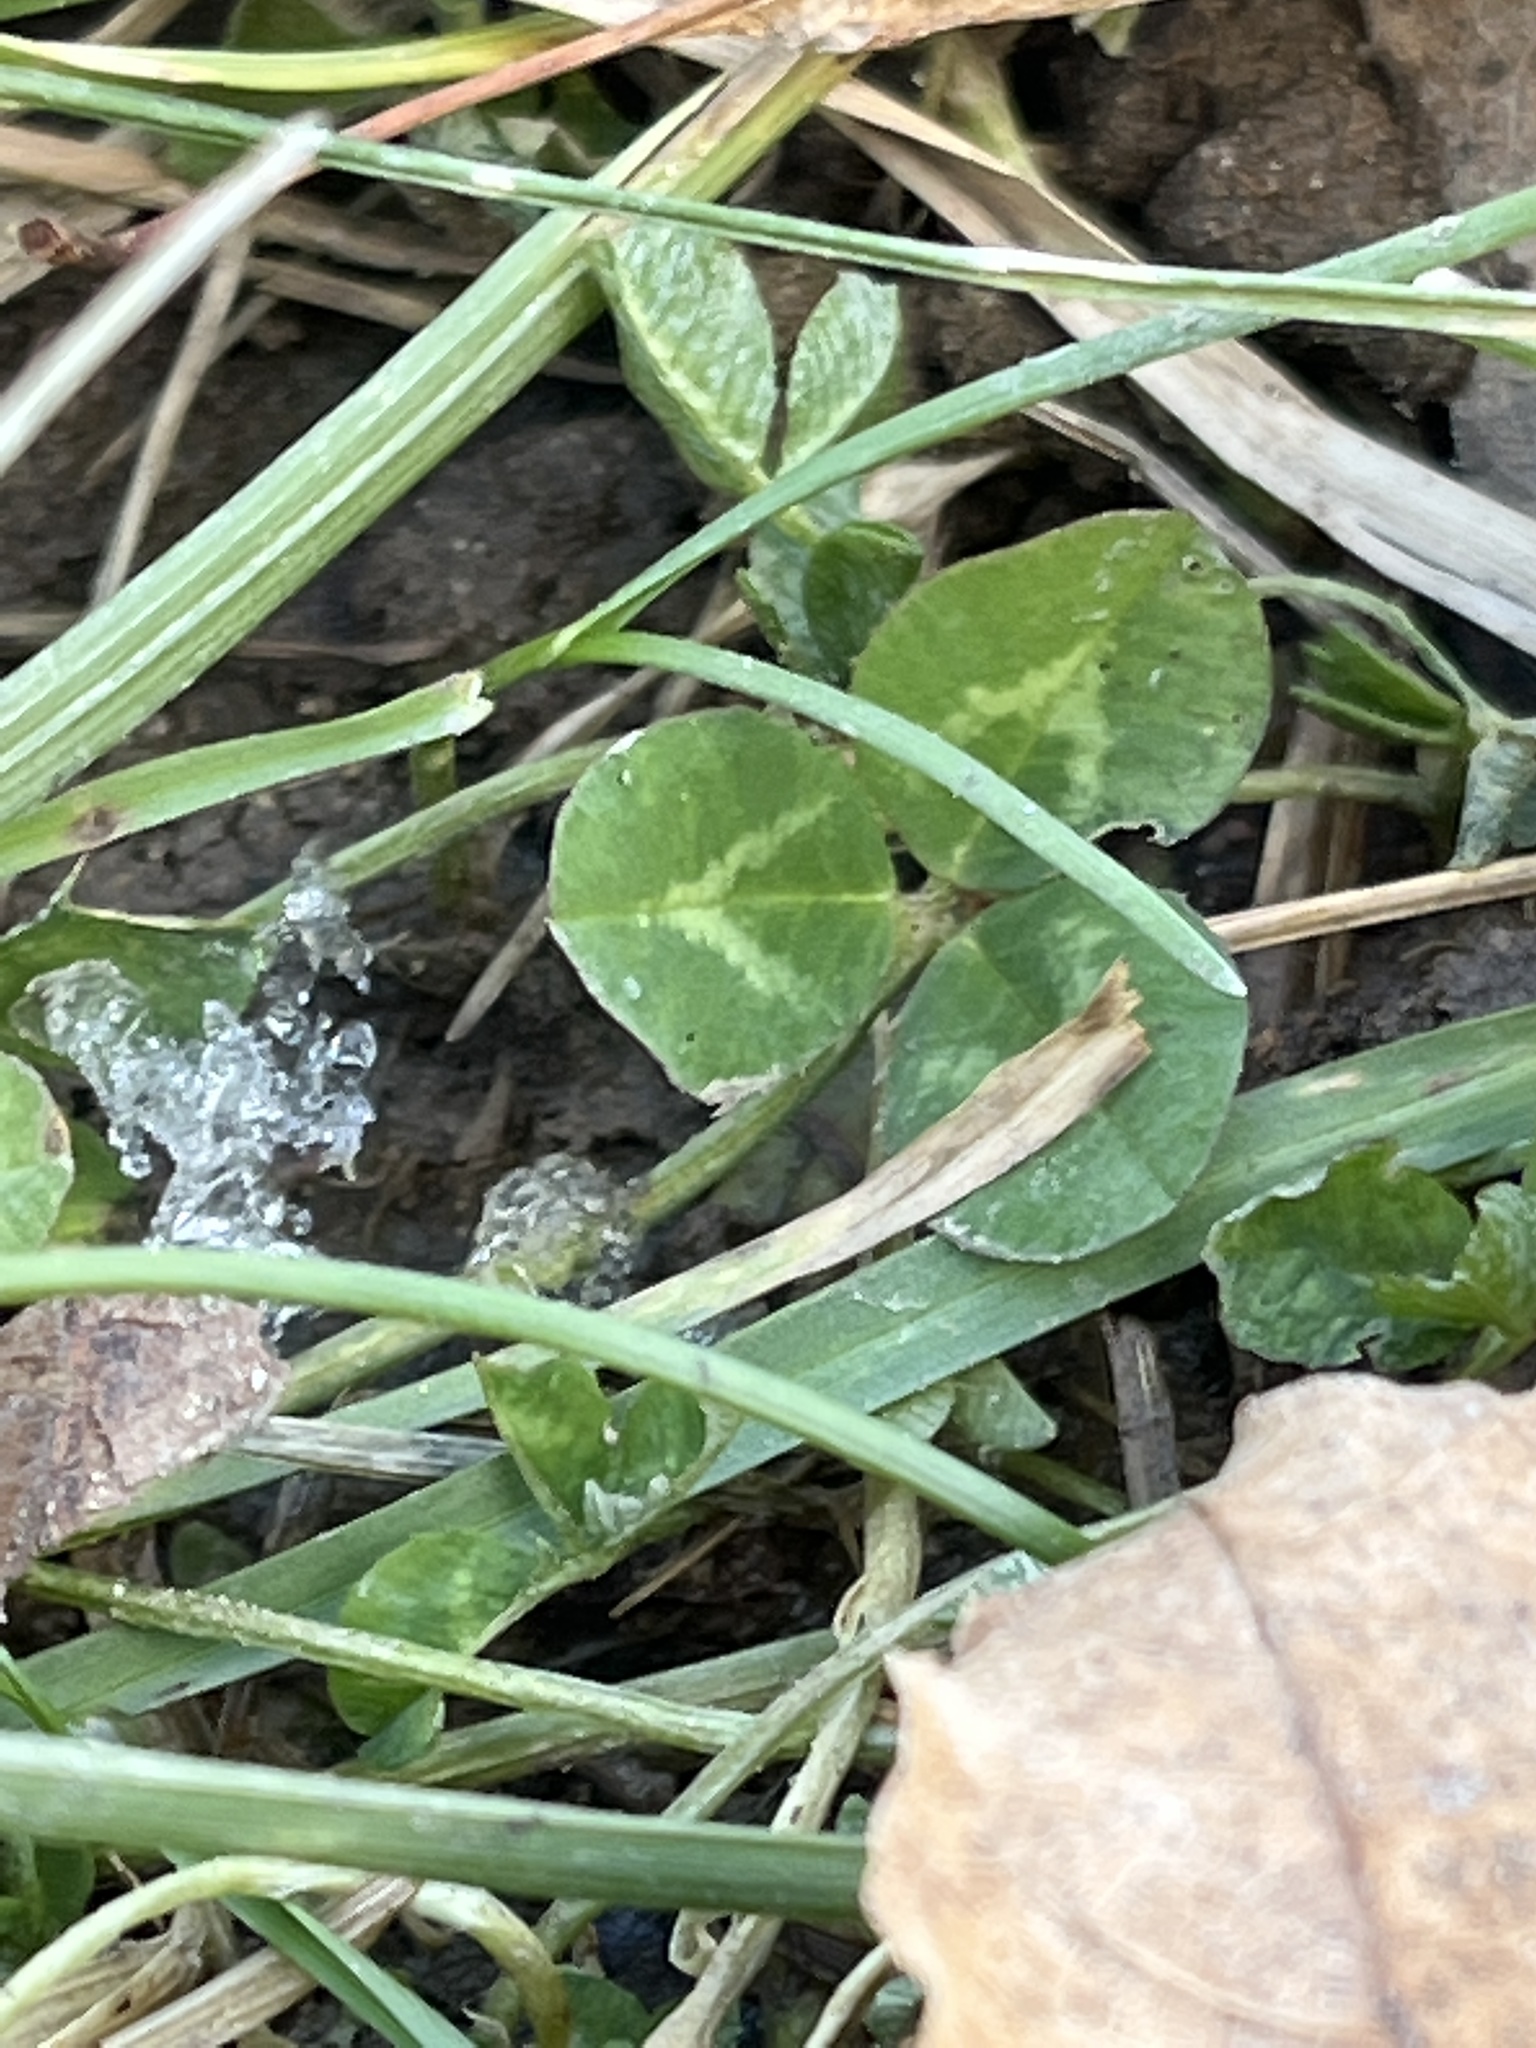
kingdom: Plantae
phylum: Tracheophyta
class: Magnoliopsida
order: Fabales
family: Fabaceae
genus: Trifolium
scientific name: Trifolium repens
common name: White clover
